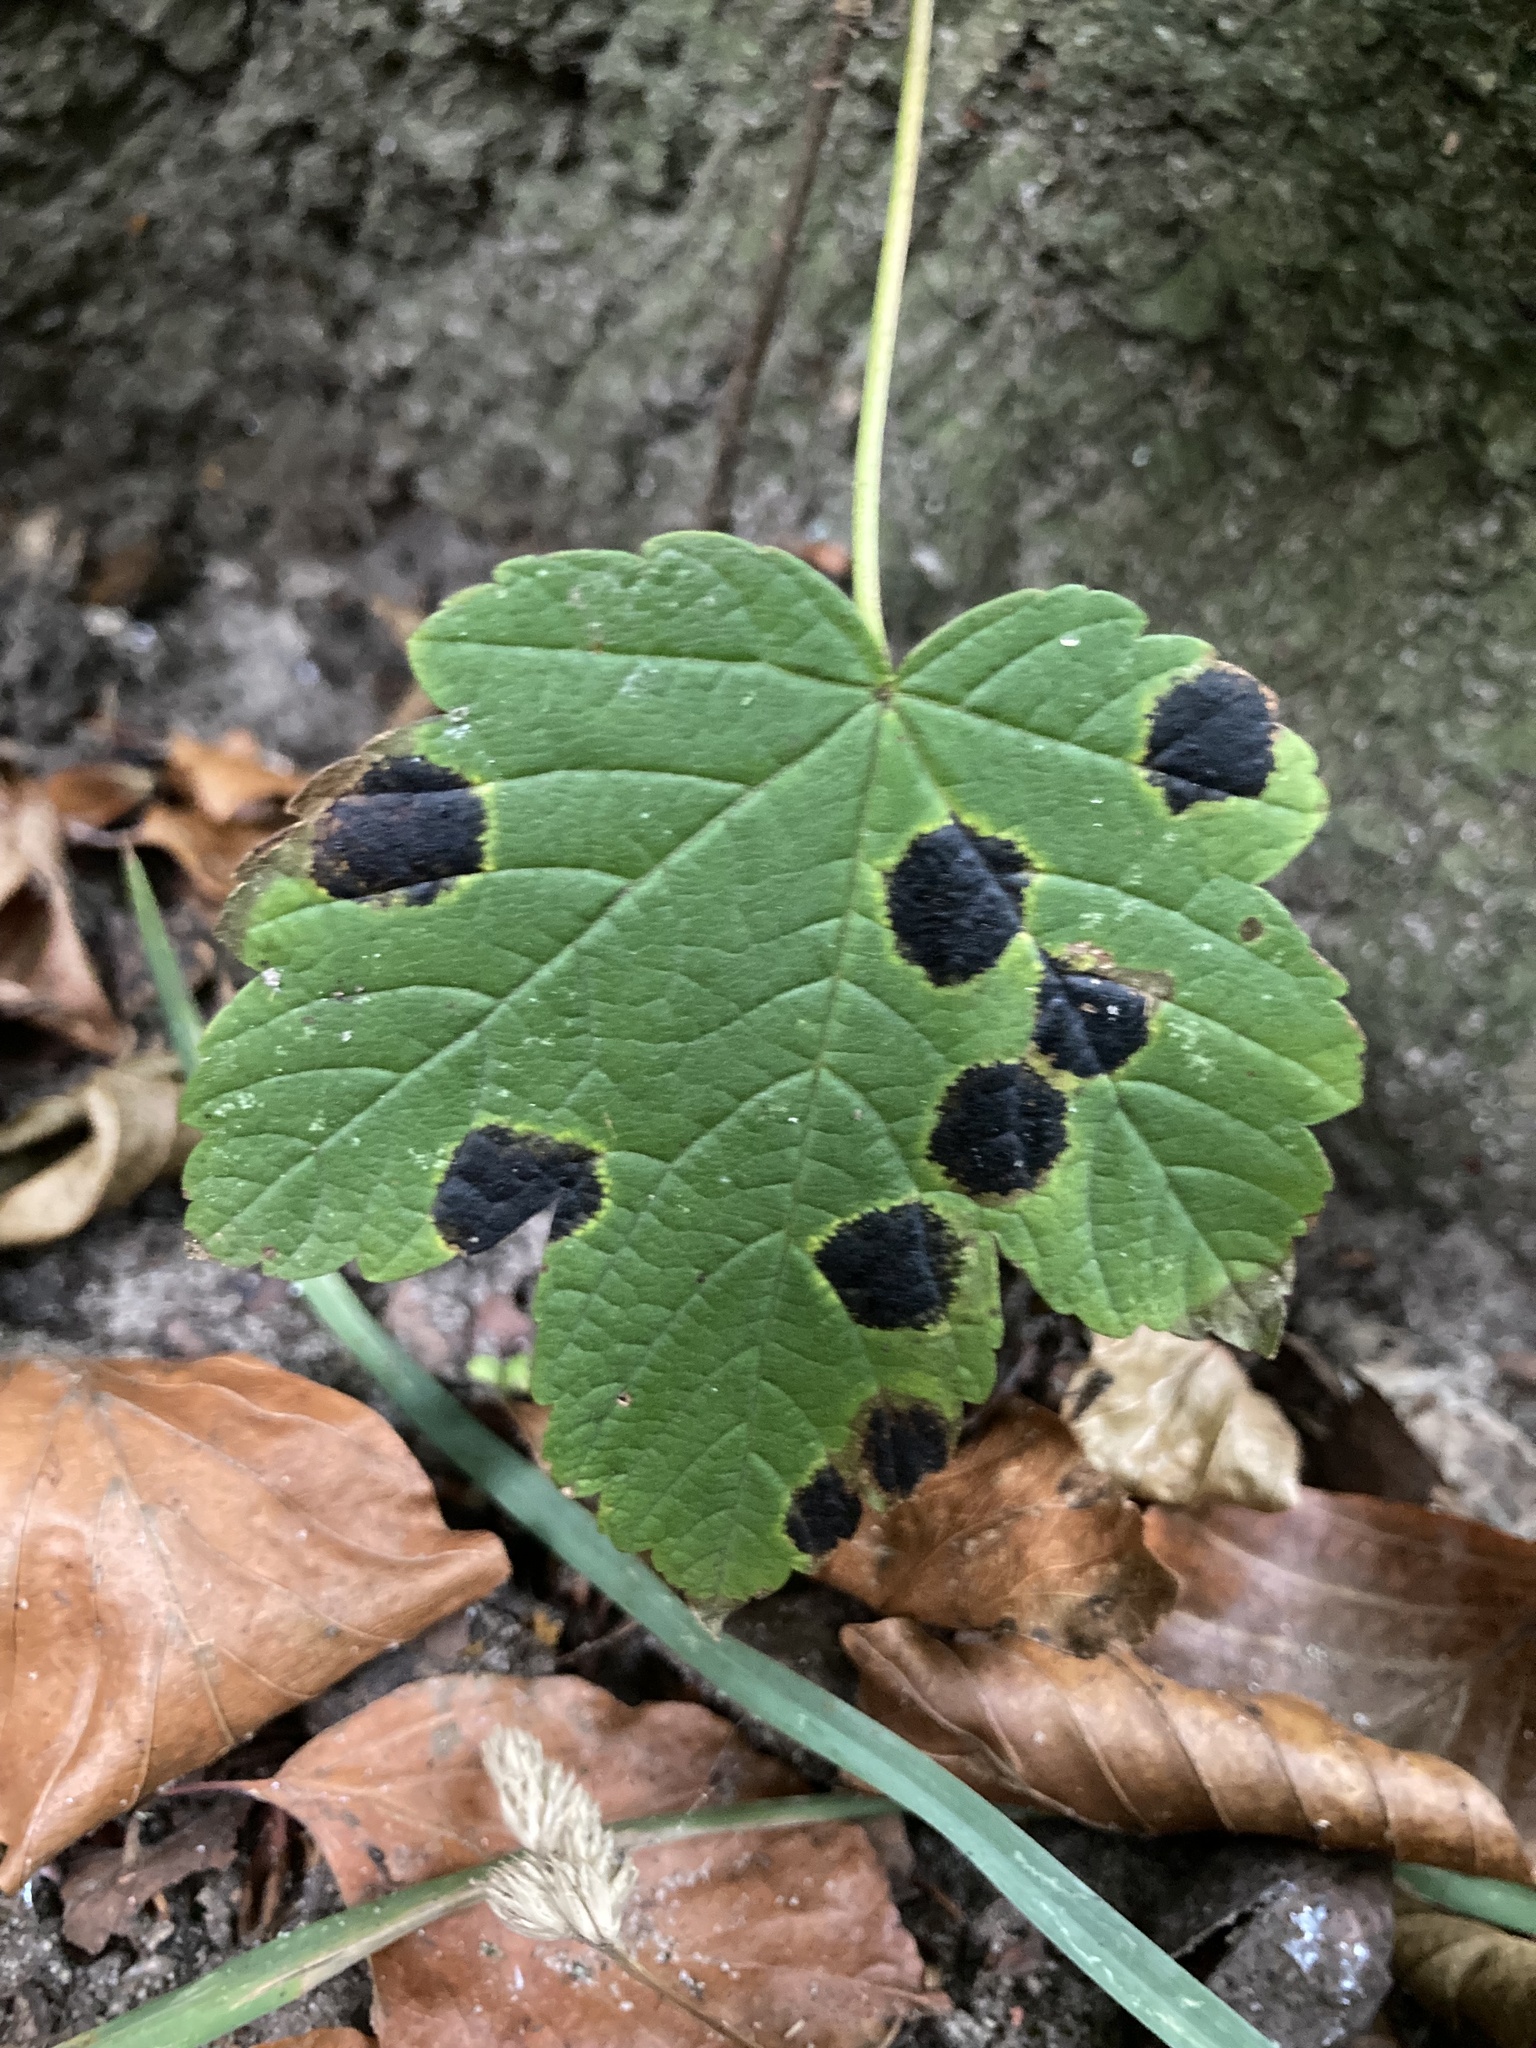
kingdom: Fungi
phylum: Ascomycota
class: Leotiomycetes
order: Rhytismatales
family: Rhytismataceae
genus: Rhytisma
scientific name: Rhytisma acerinum
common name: European tar spot
